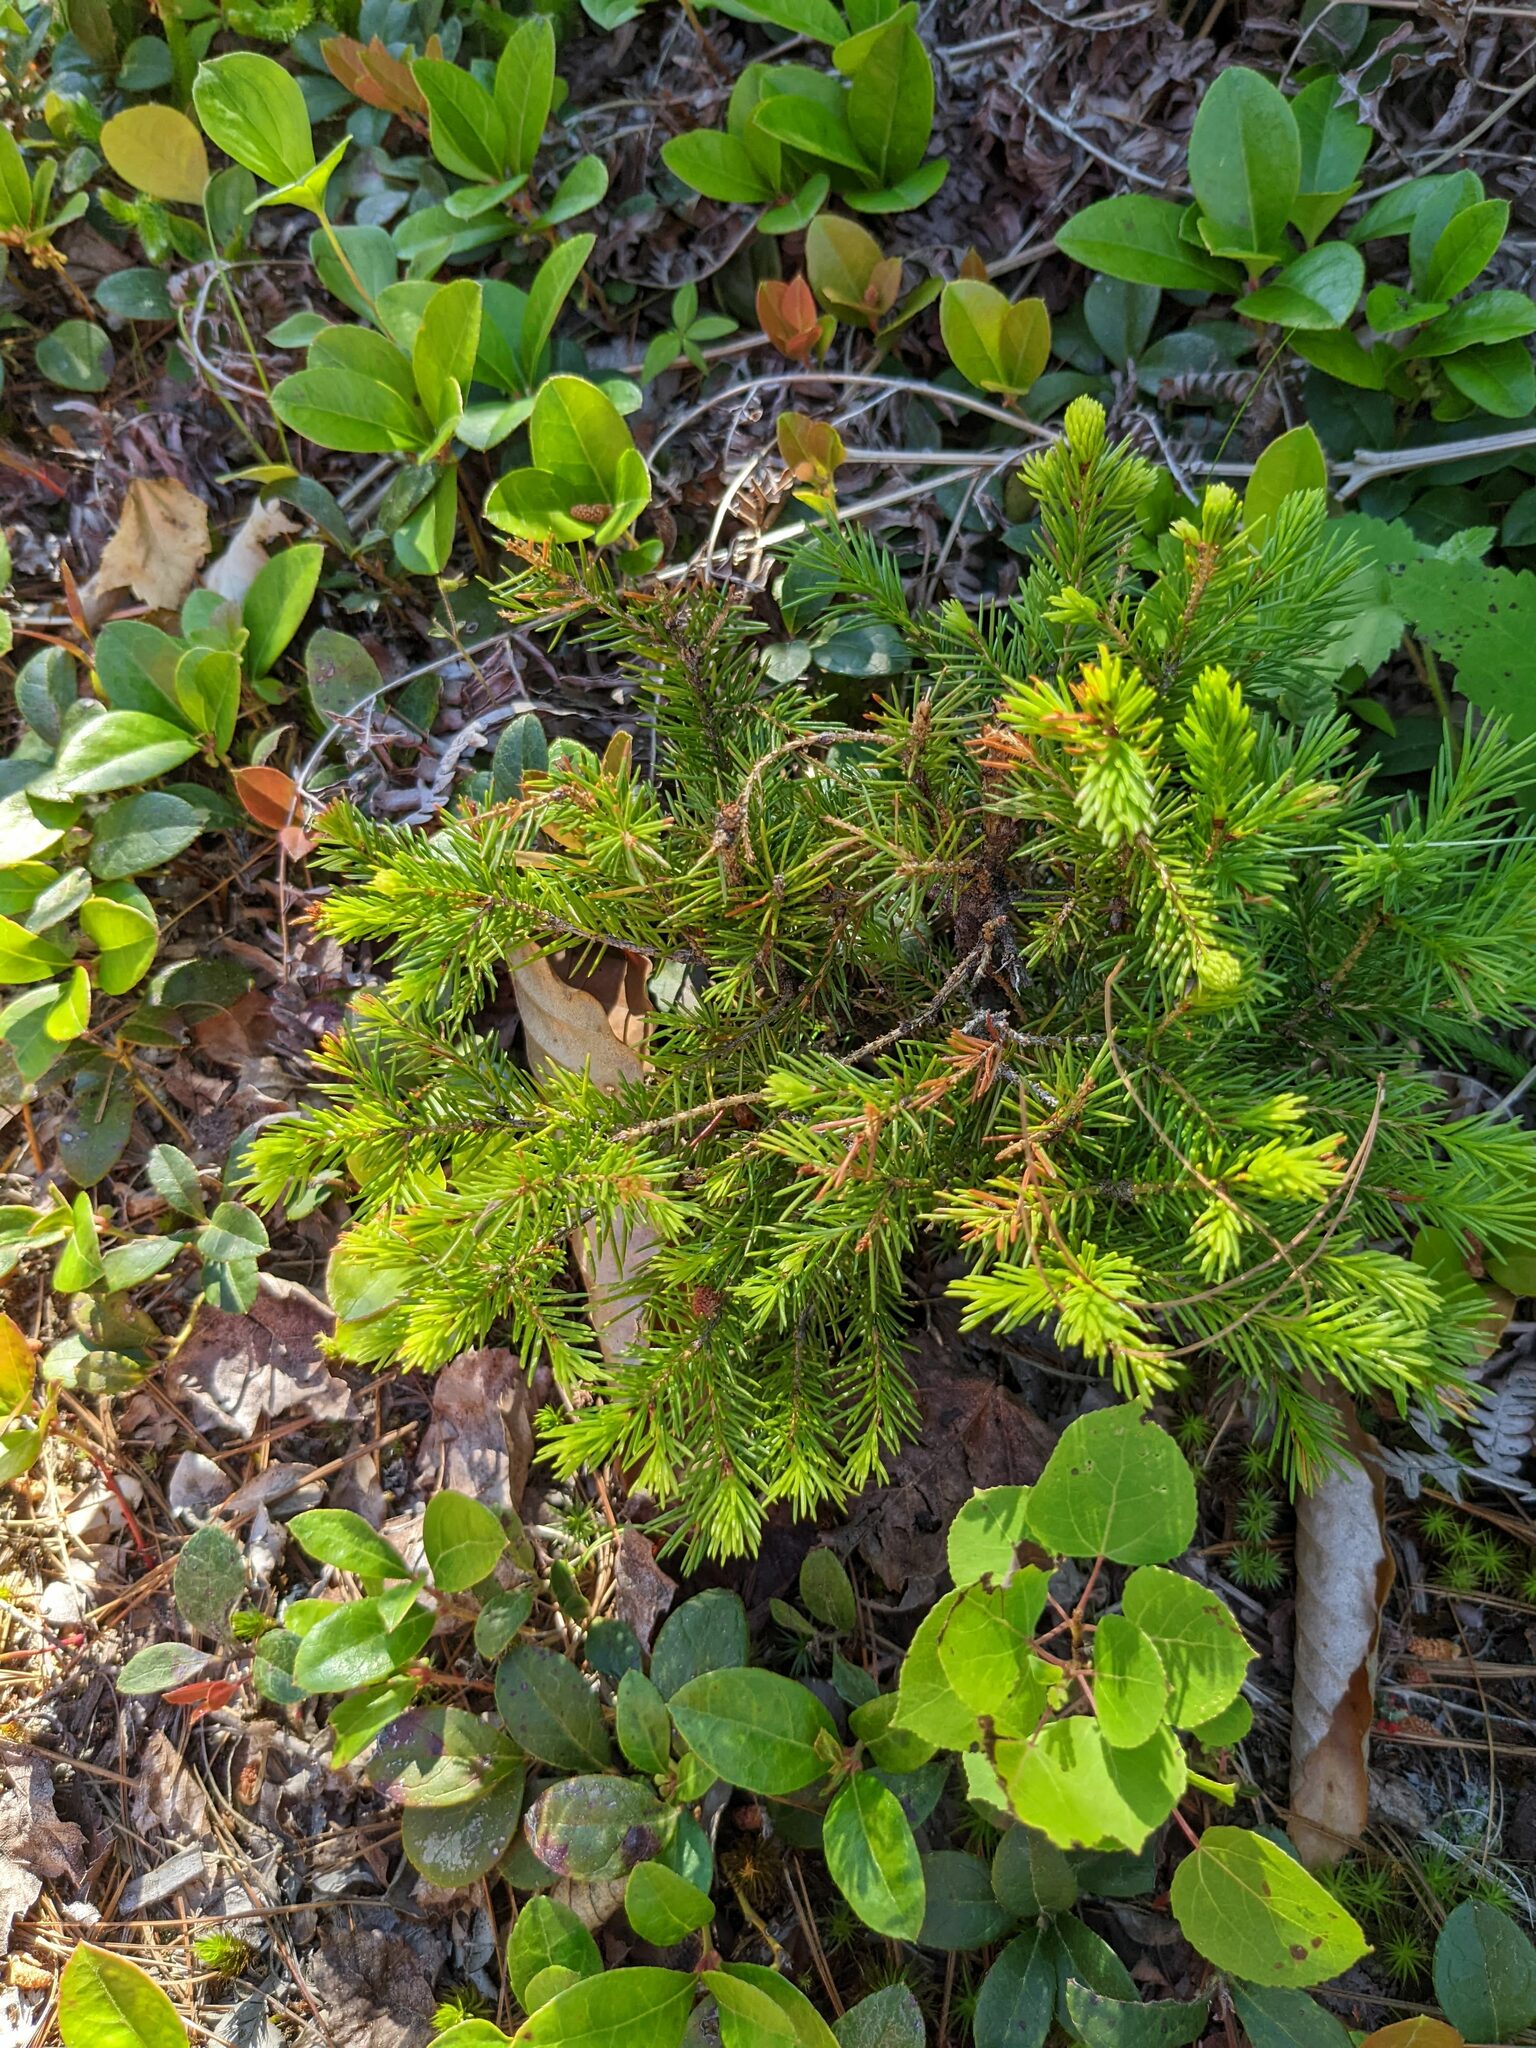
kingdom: Plantae
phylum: Tracheophyta
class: Magnoliopsida
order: Ericales
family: Ericaceae
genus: Gaultheria
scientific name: Gaultheria procumbens
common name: Checkerberry
